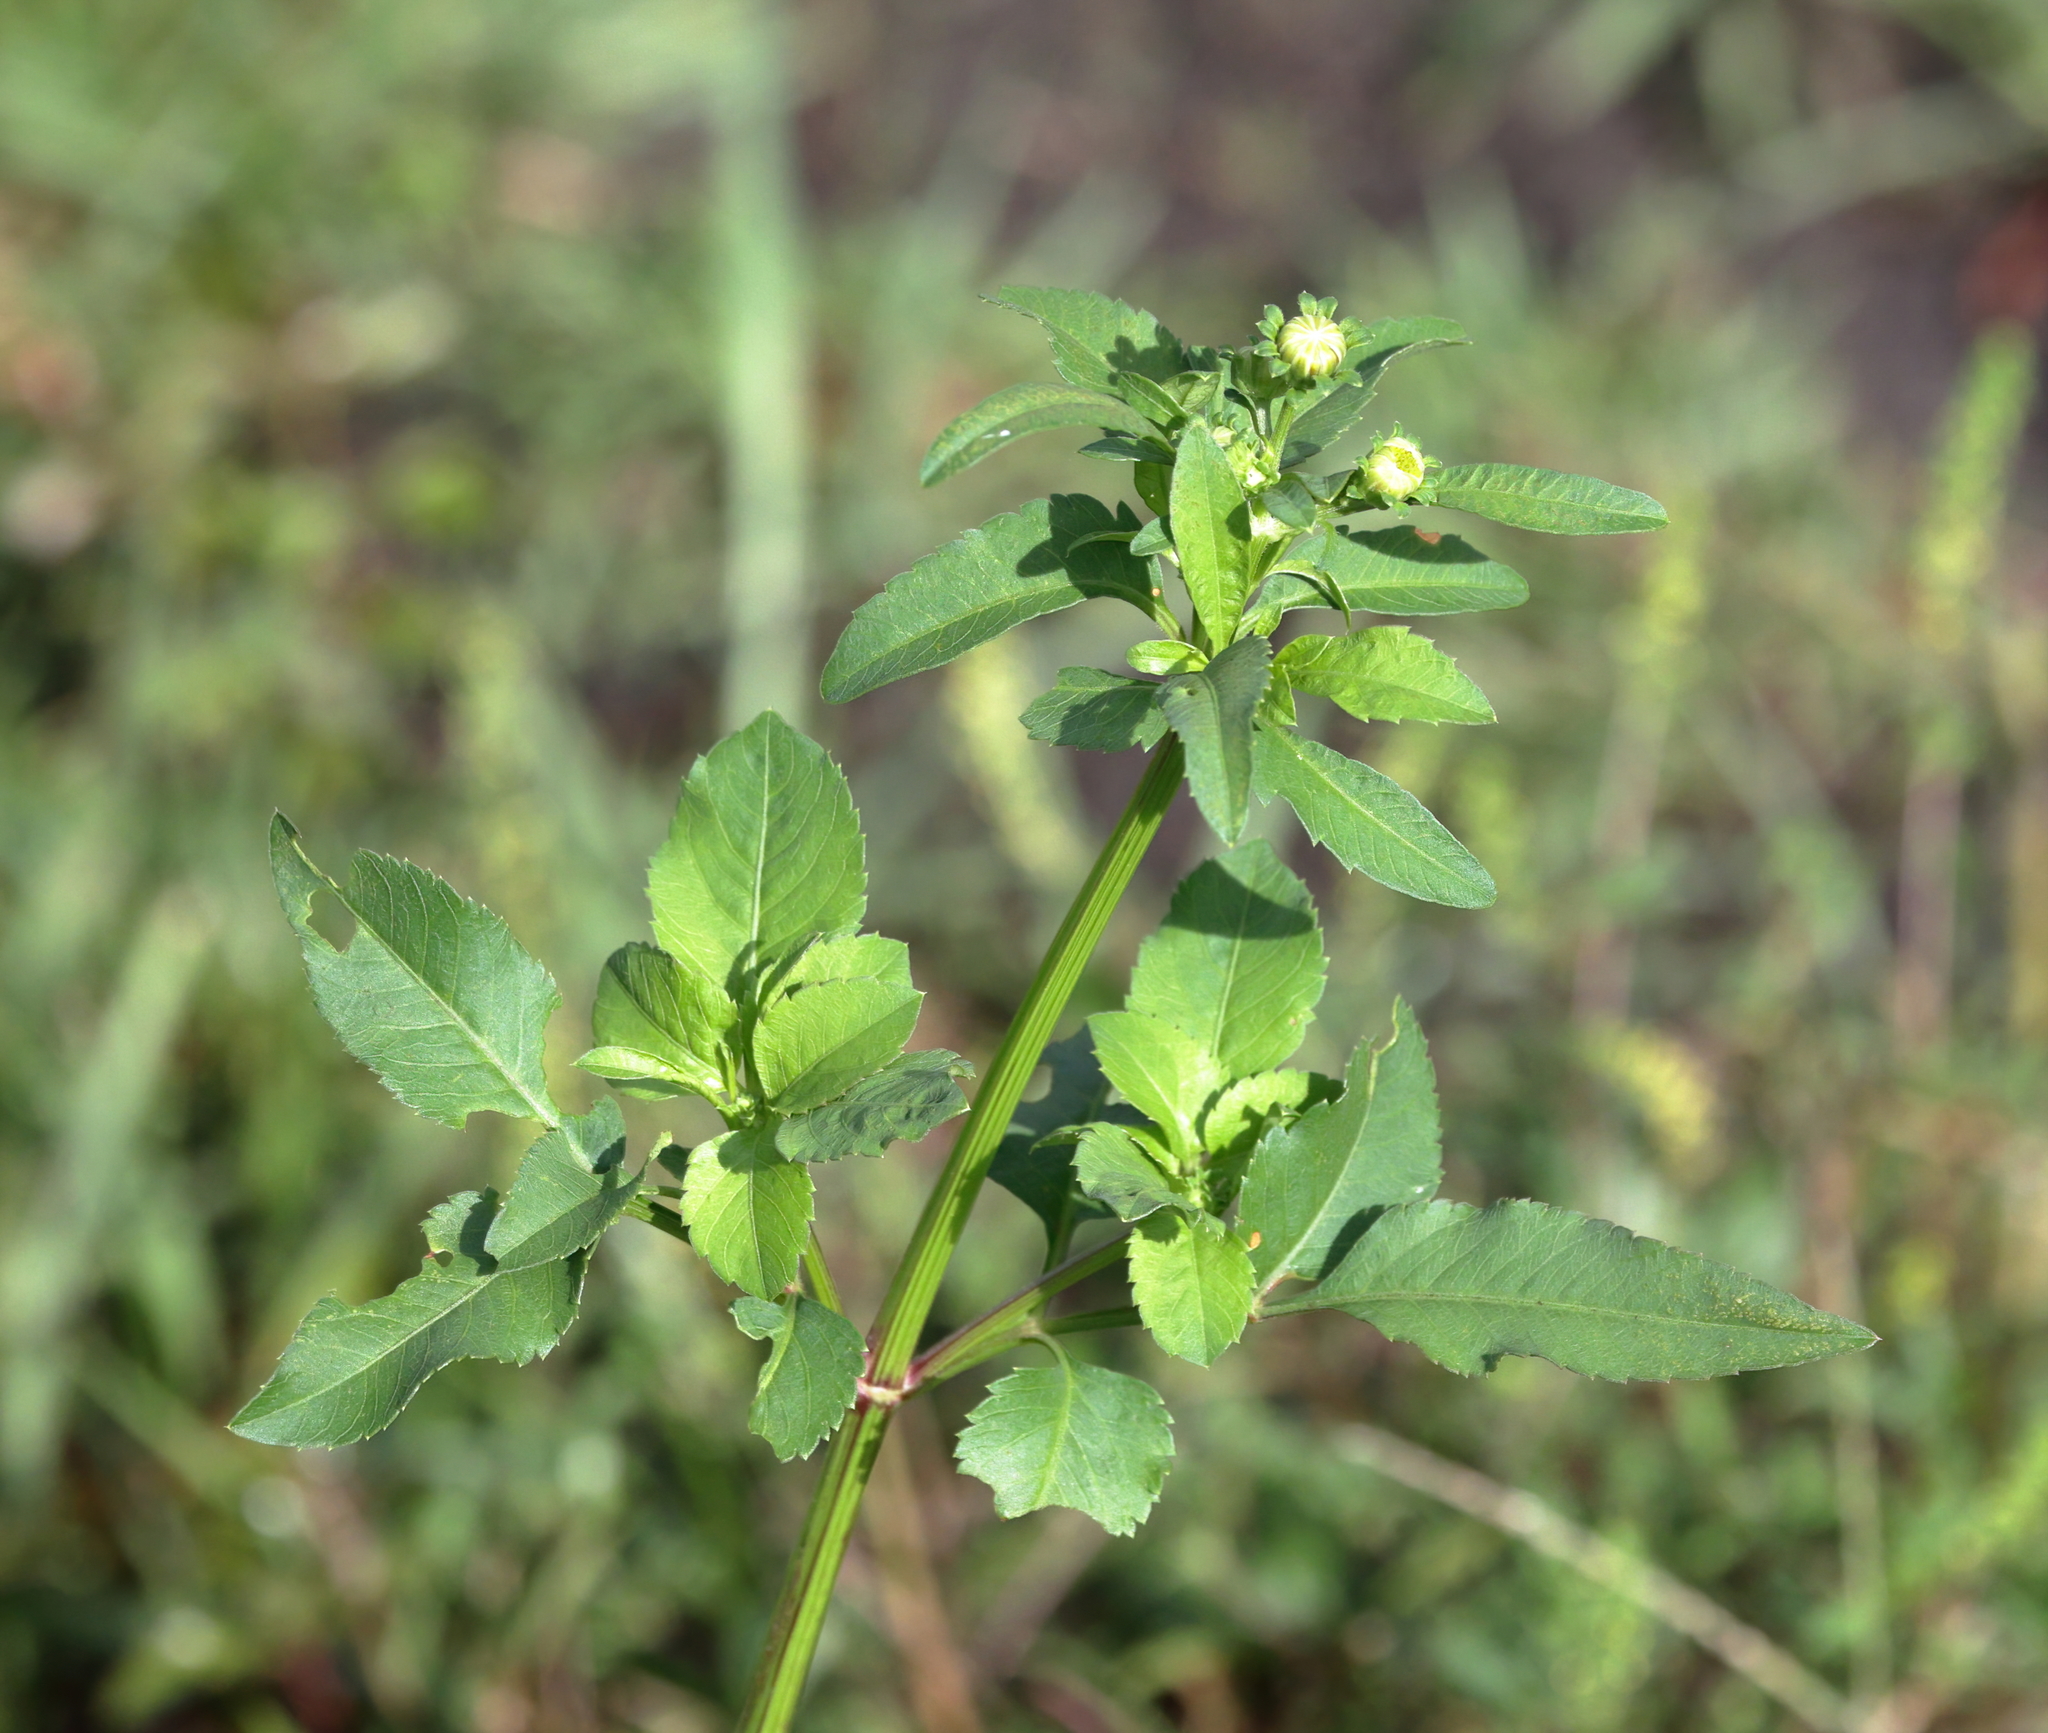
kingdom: Plantae
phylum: Tracheophyta
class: Magnoliopsida
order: Asterales
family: Asteraceae
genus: Bidens
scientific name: Bidens alba
